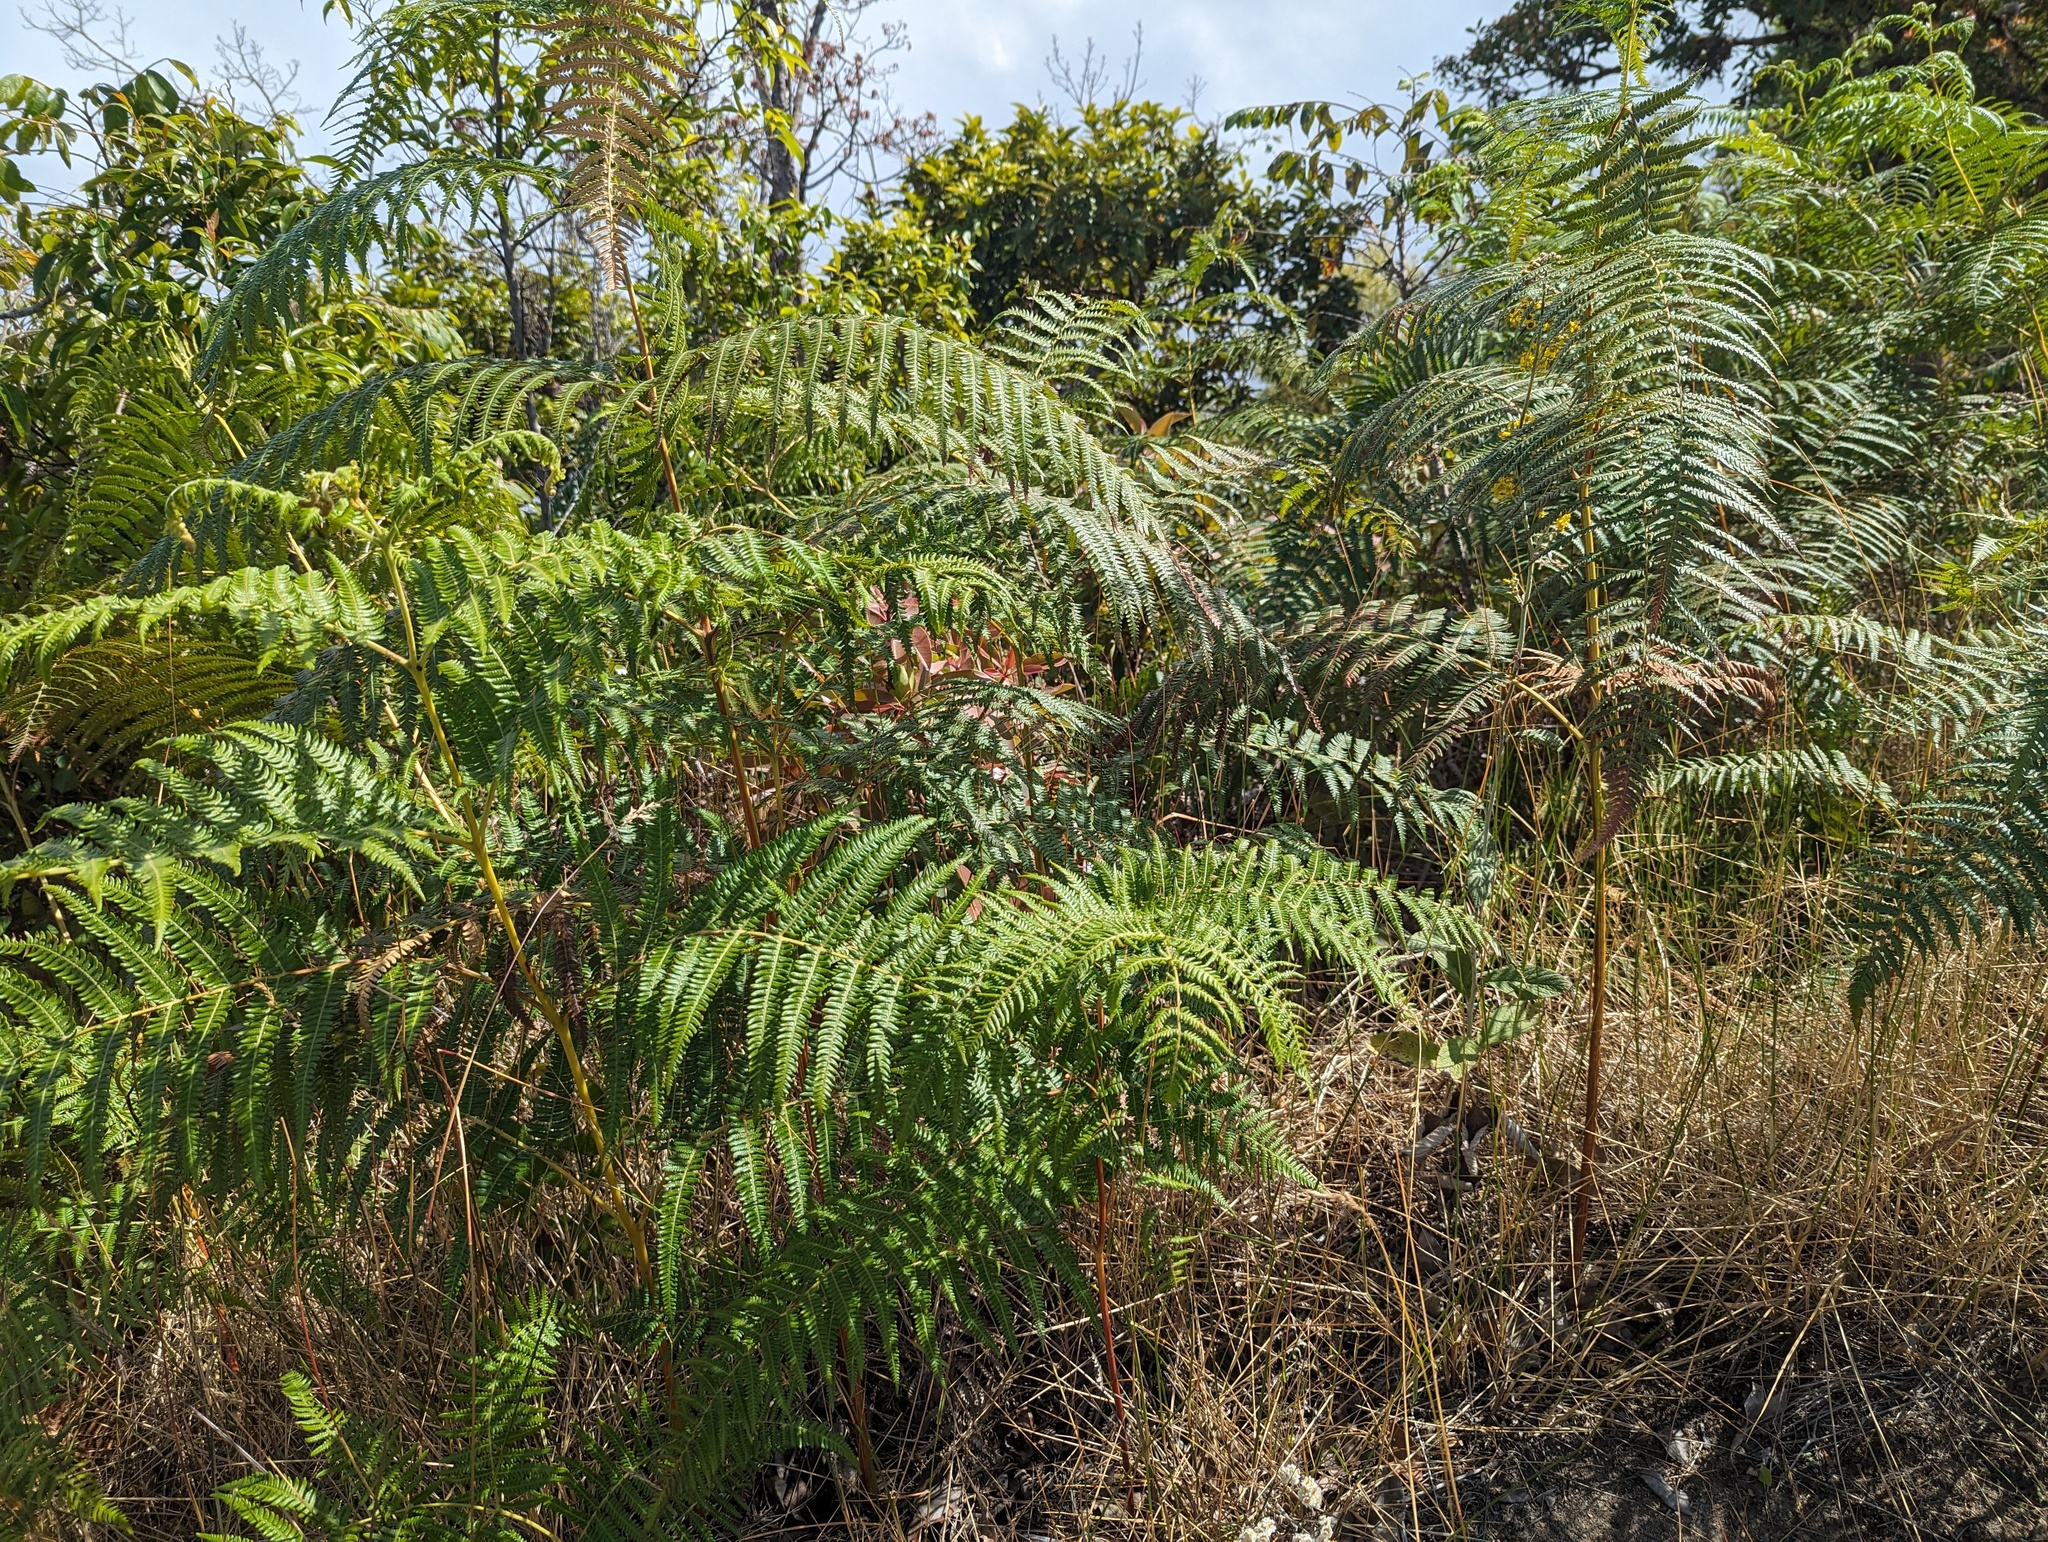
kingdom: Plantae
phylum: Tracheophyta
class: Polypodiopsida
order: Polypodiales
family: Dennstaedtiaceae
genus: Pteridium
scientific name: Pteridium aquilinum
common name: Bracken
